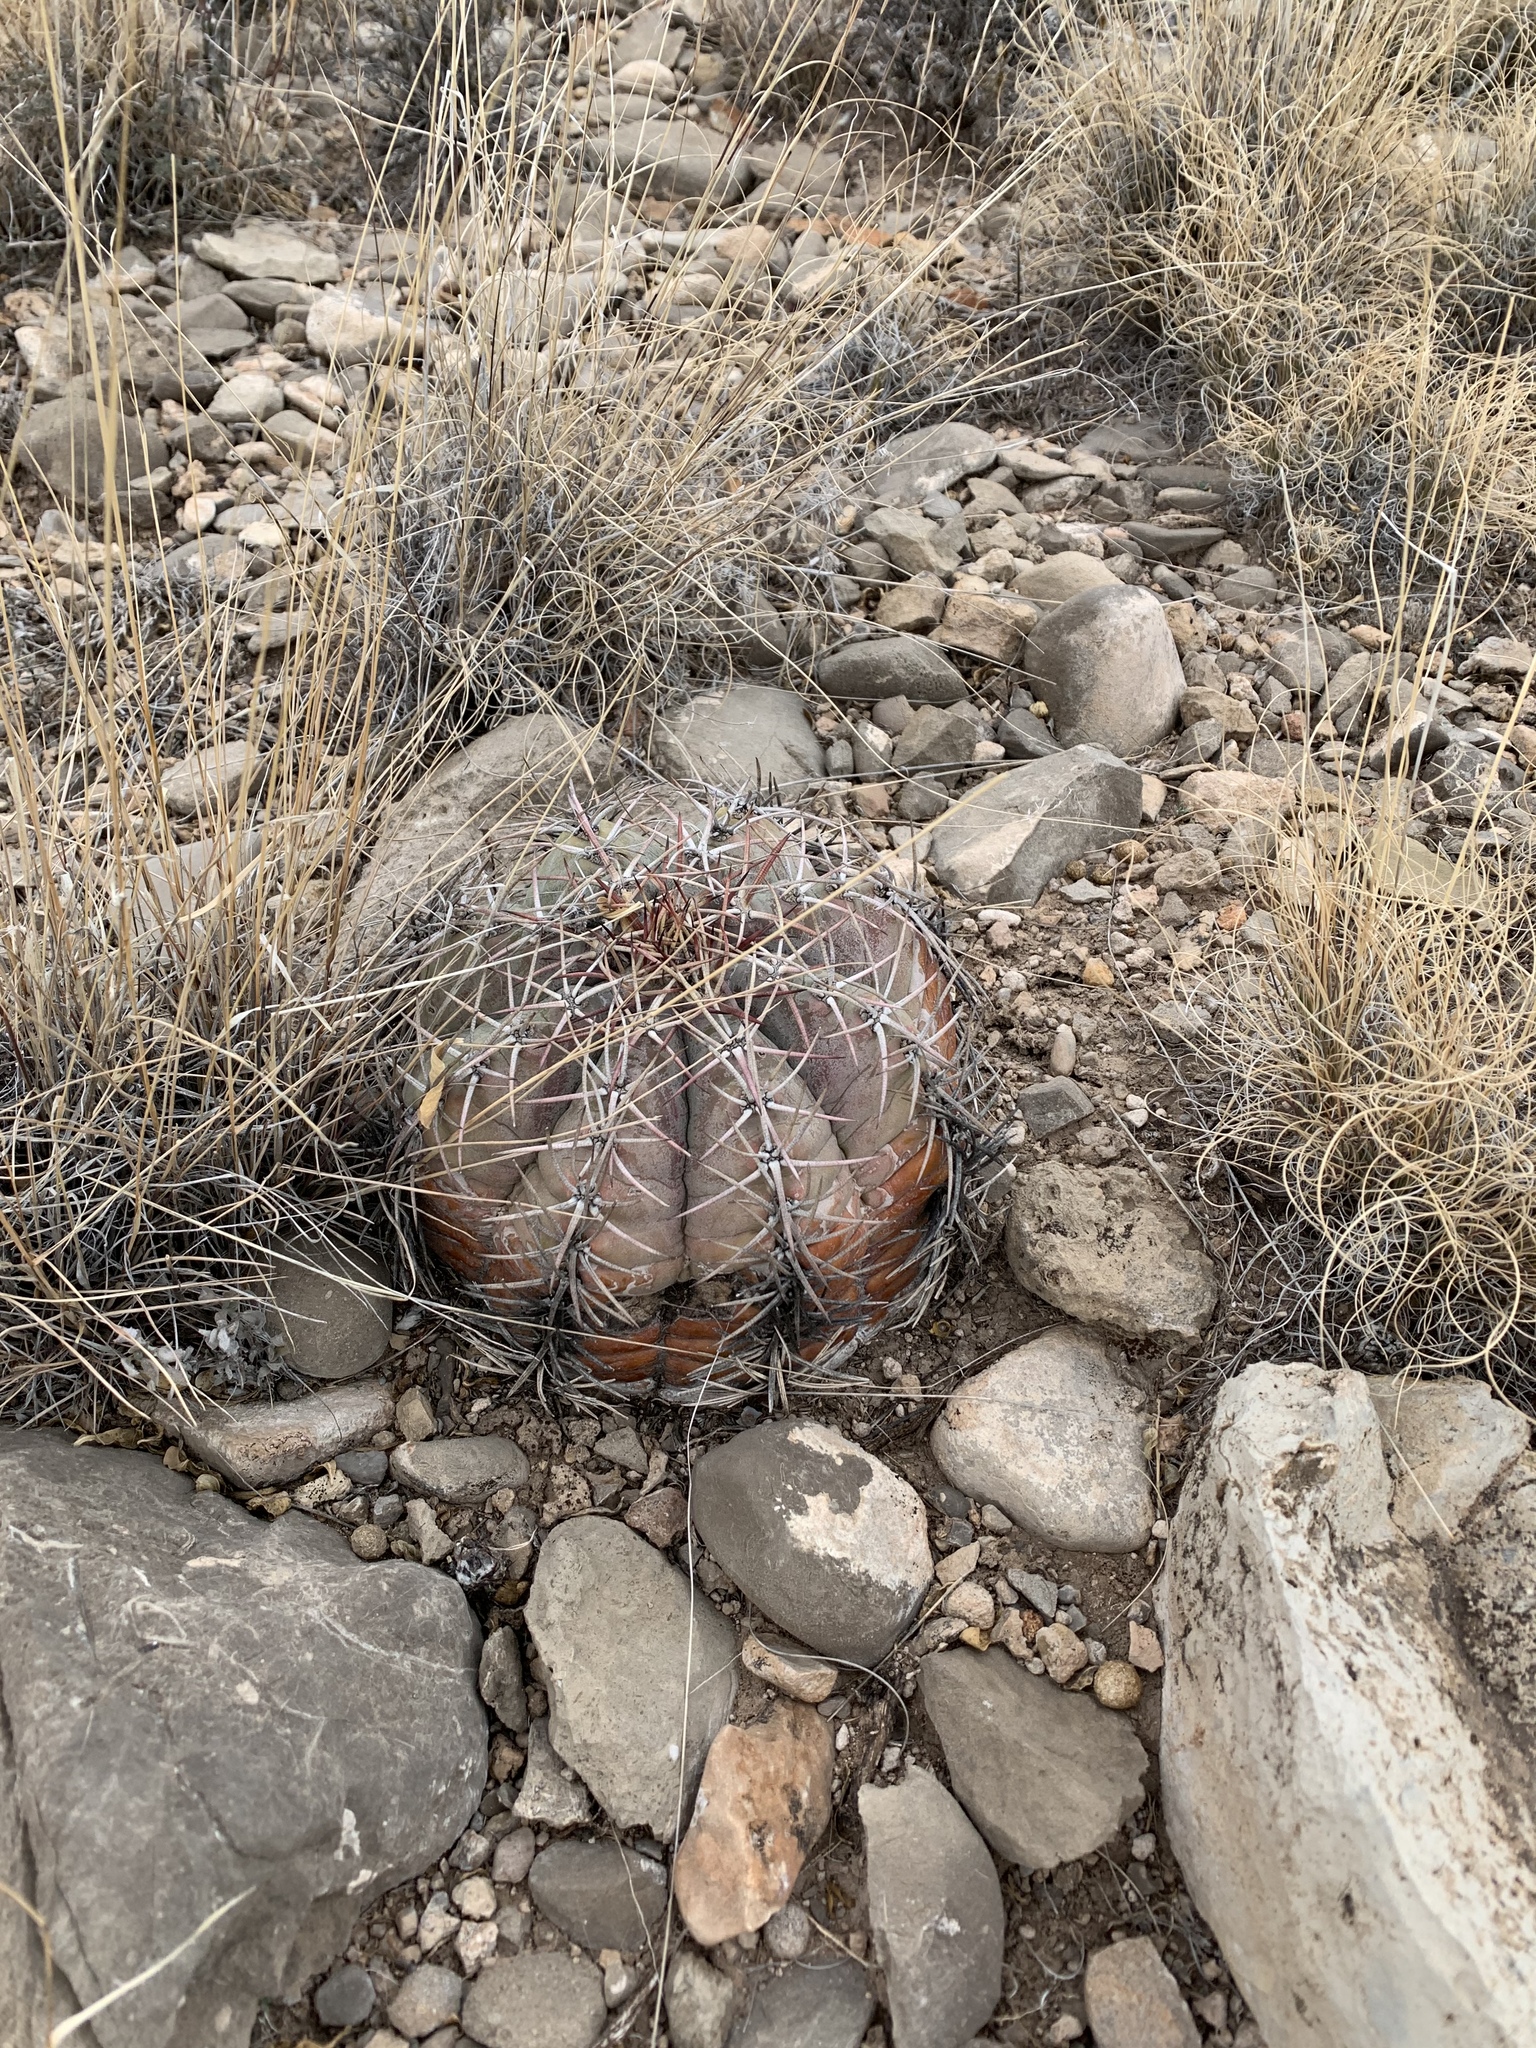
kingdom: Plantae
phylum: Tracheophyta
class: Magnoliopsida
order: Caryophyllales
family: Cactaceae
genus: Echinocactus
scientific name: Echinocactus horizonthalonius
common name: Devilshead
